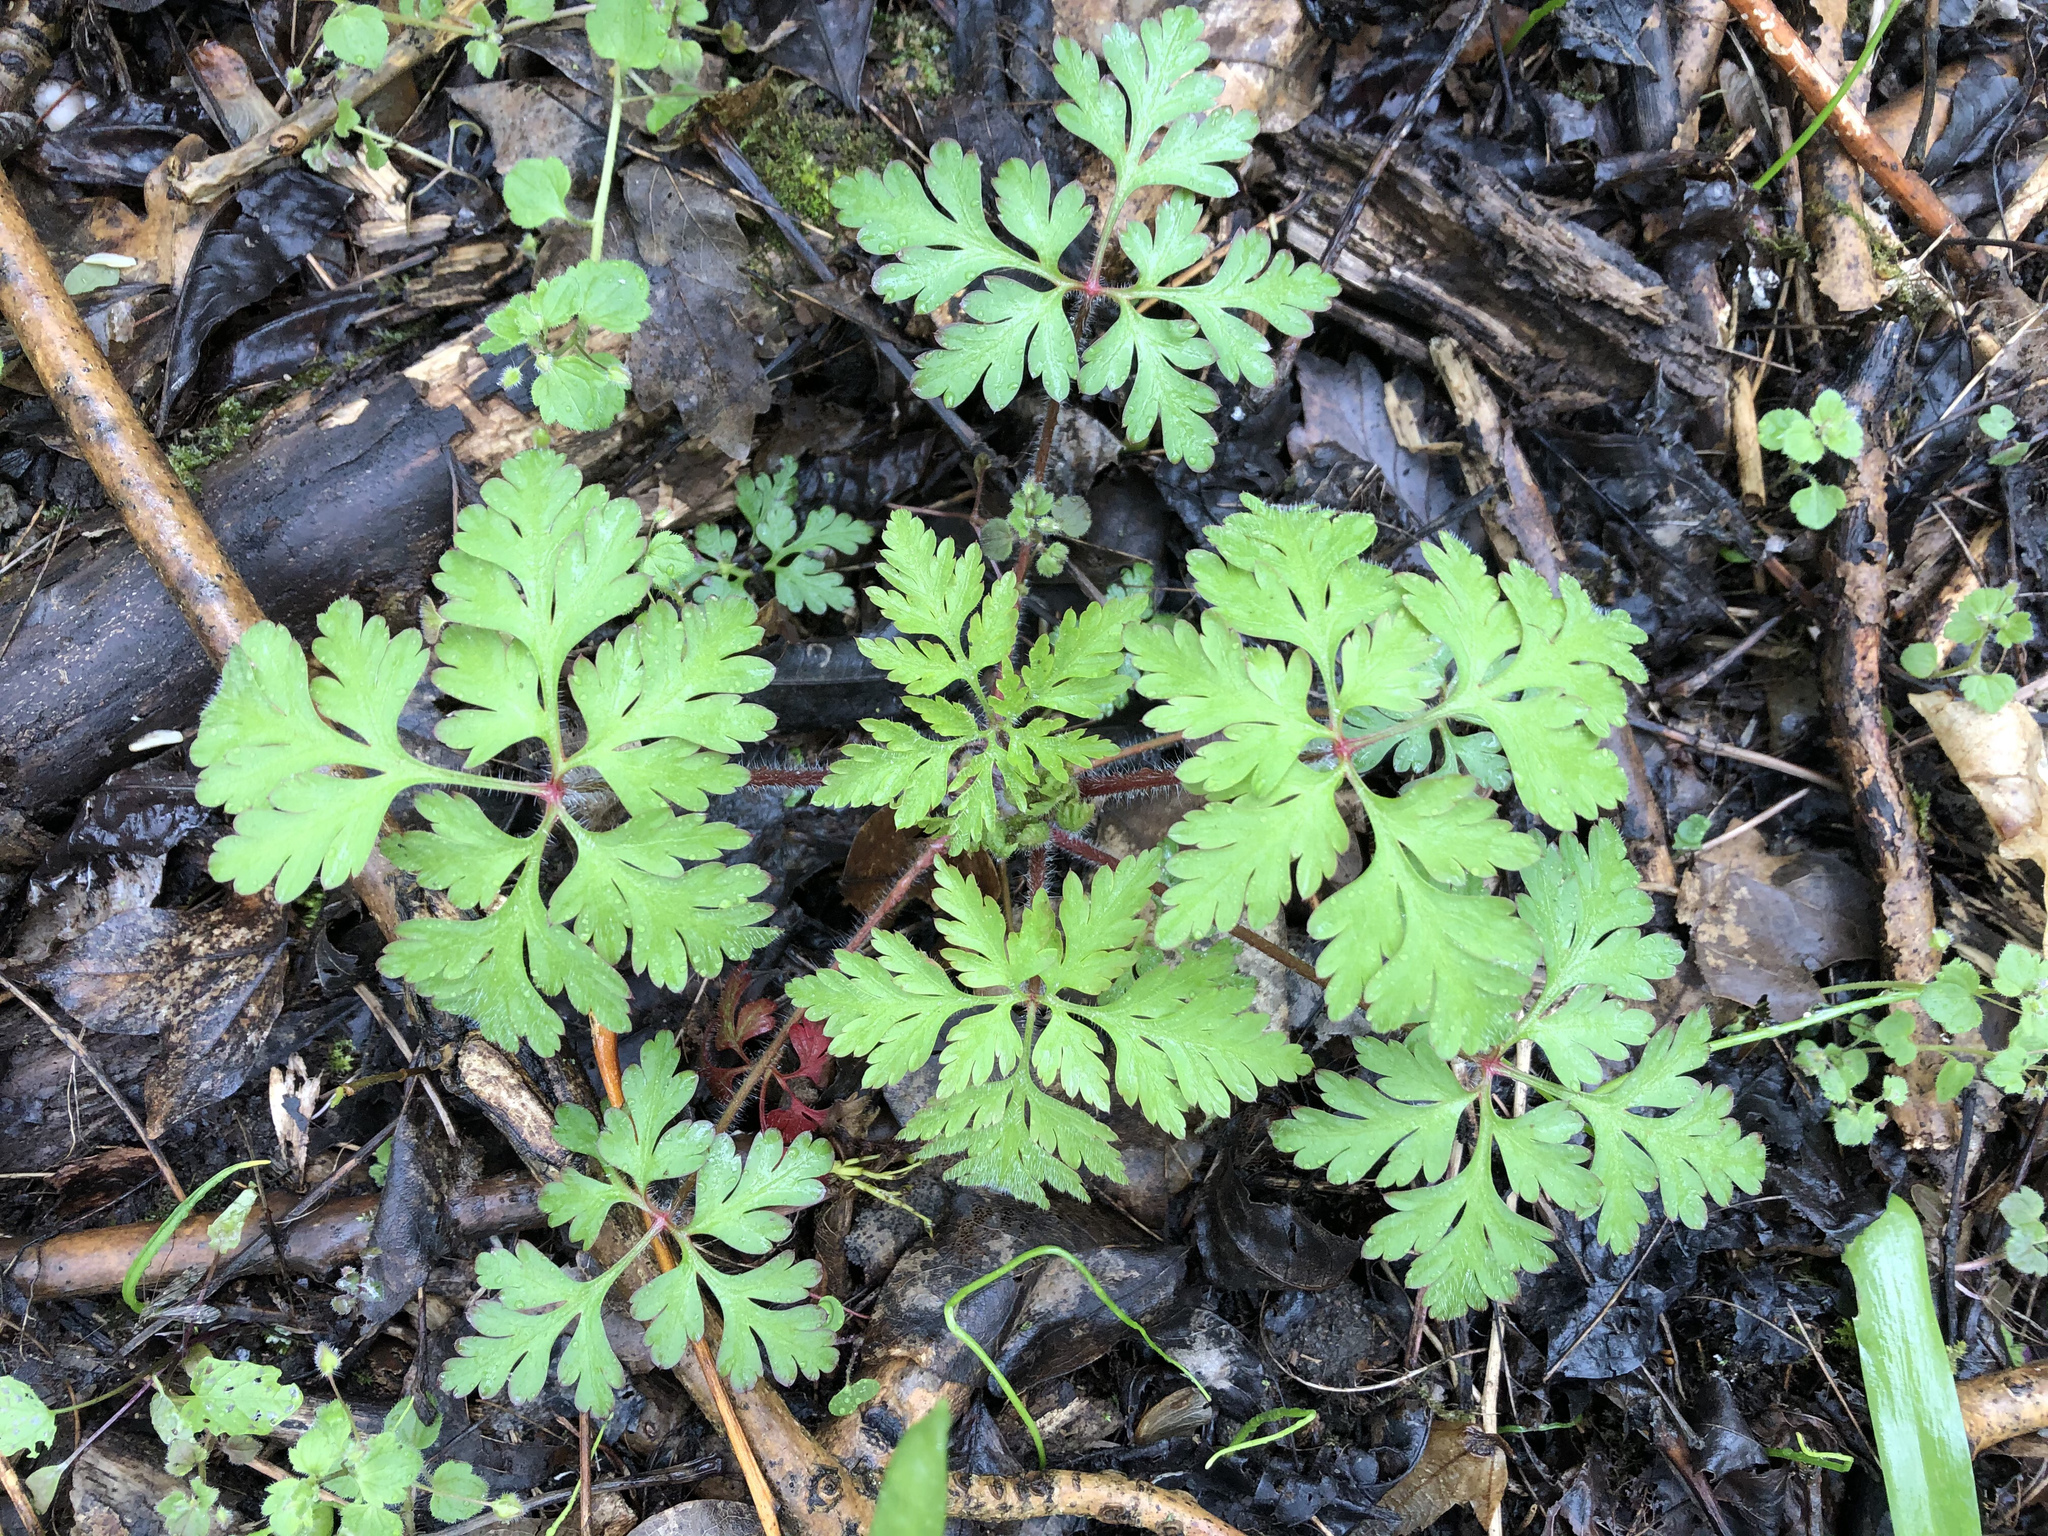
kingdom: Plantae
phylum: Tracheophyta
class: Magnoliopsida
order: Geraniales
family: Geraniaceae
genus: Geranium
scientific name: Geranium robertianum
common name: Herb-robert
